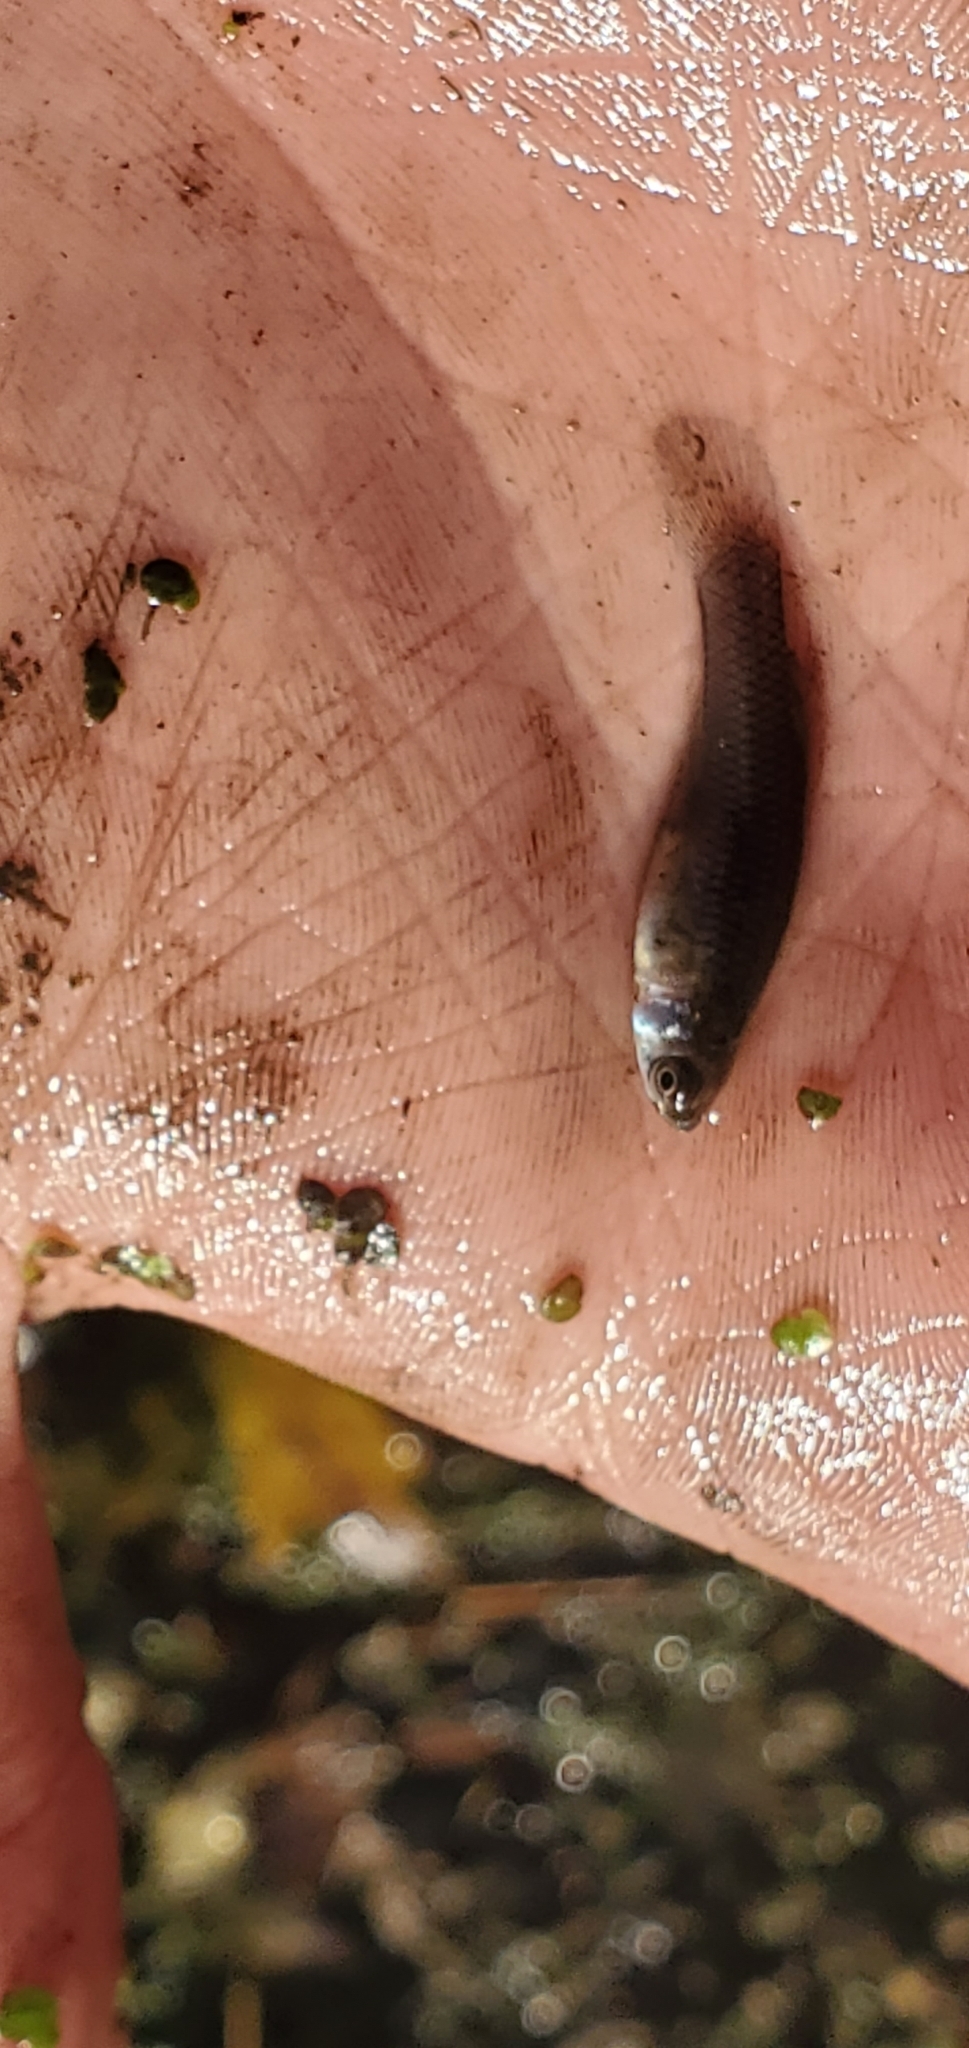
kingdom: Animalia
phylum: Chordata
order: Cyprinodontiformes
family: Poeciliidae
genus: Gambusia
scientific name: Gambusia affinis
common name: Mosquitofish
